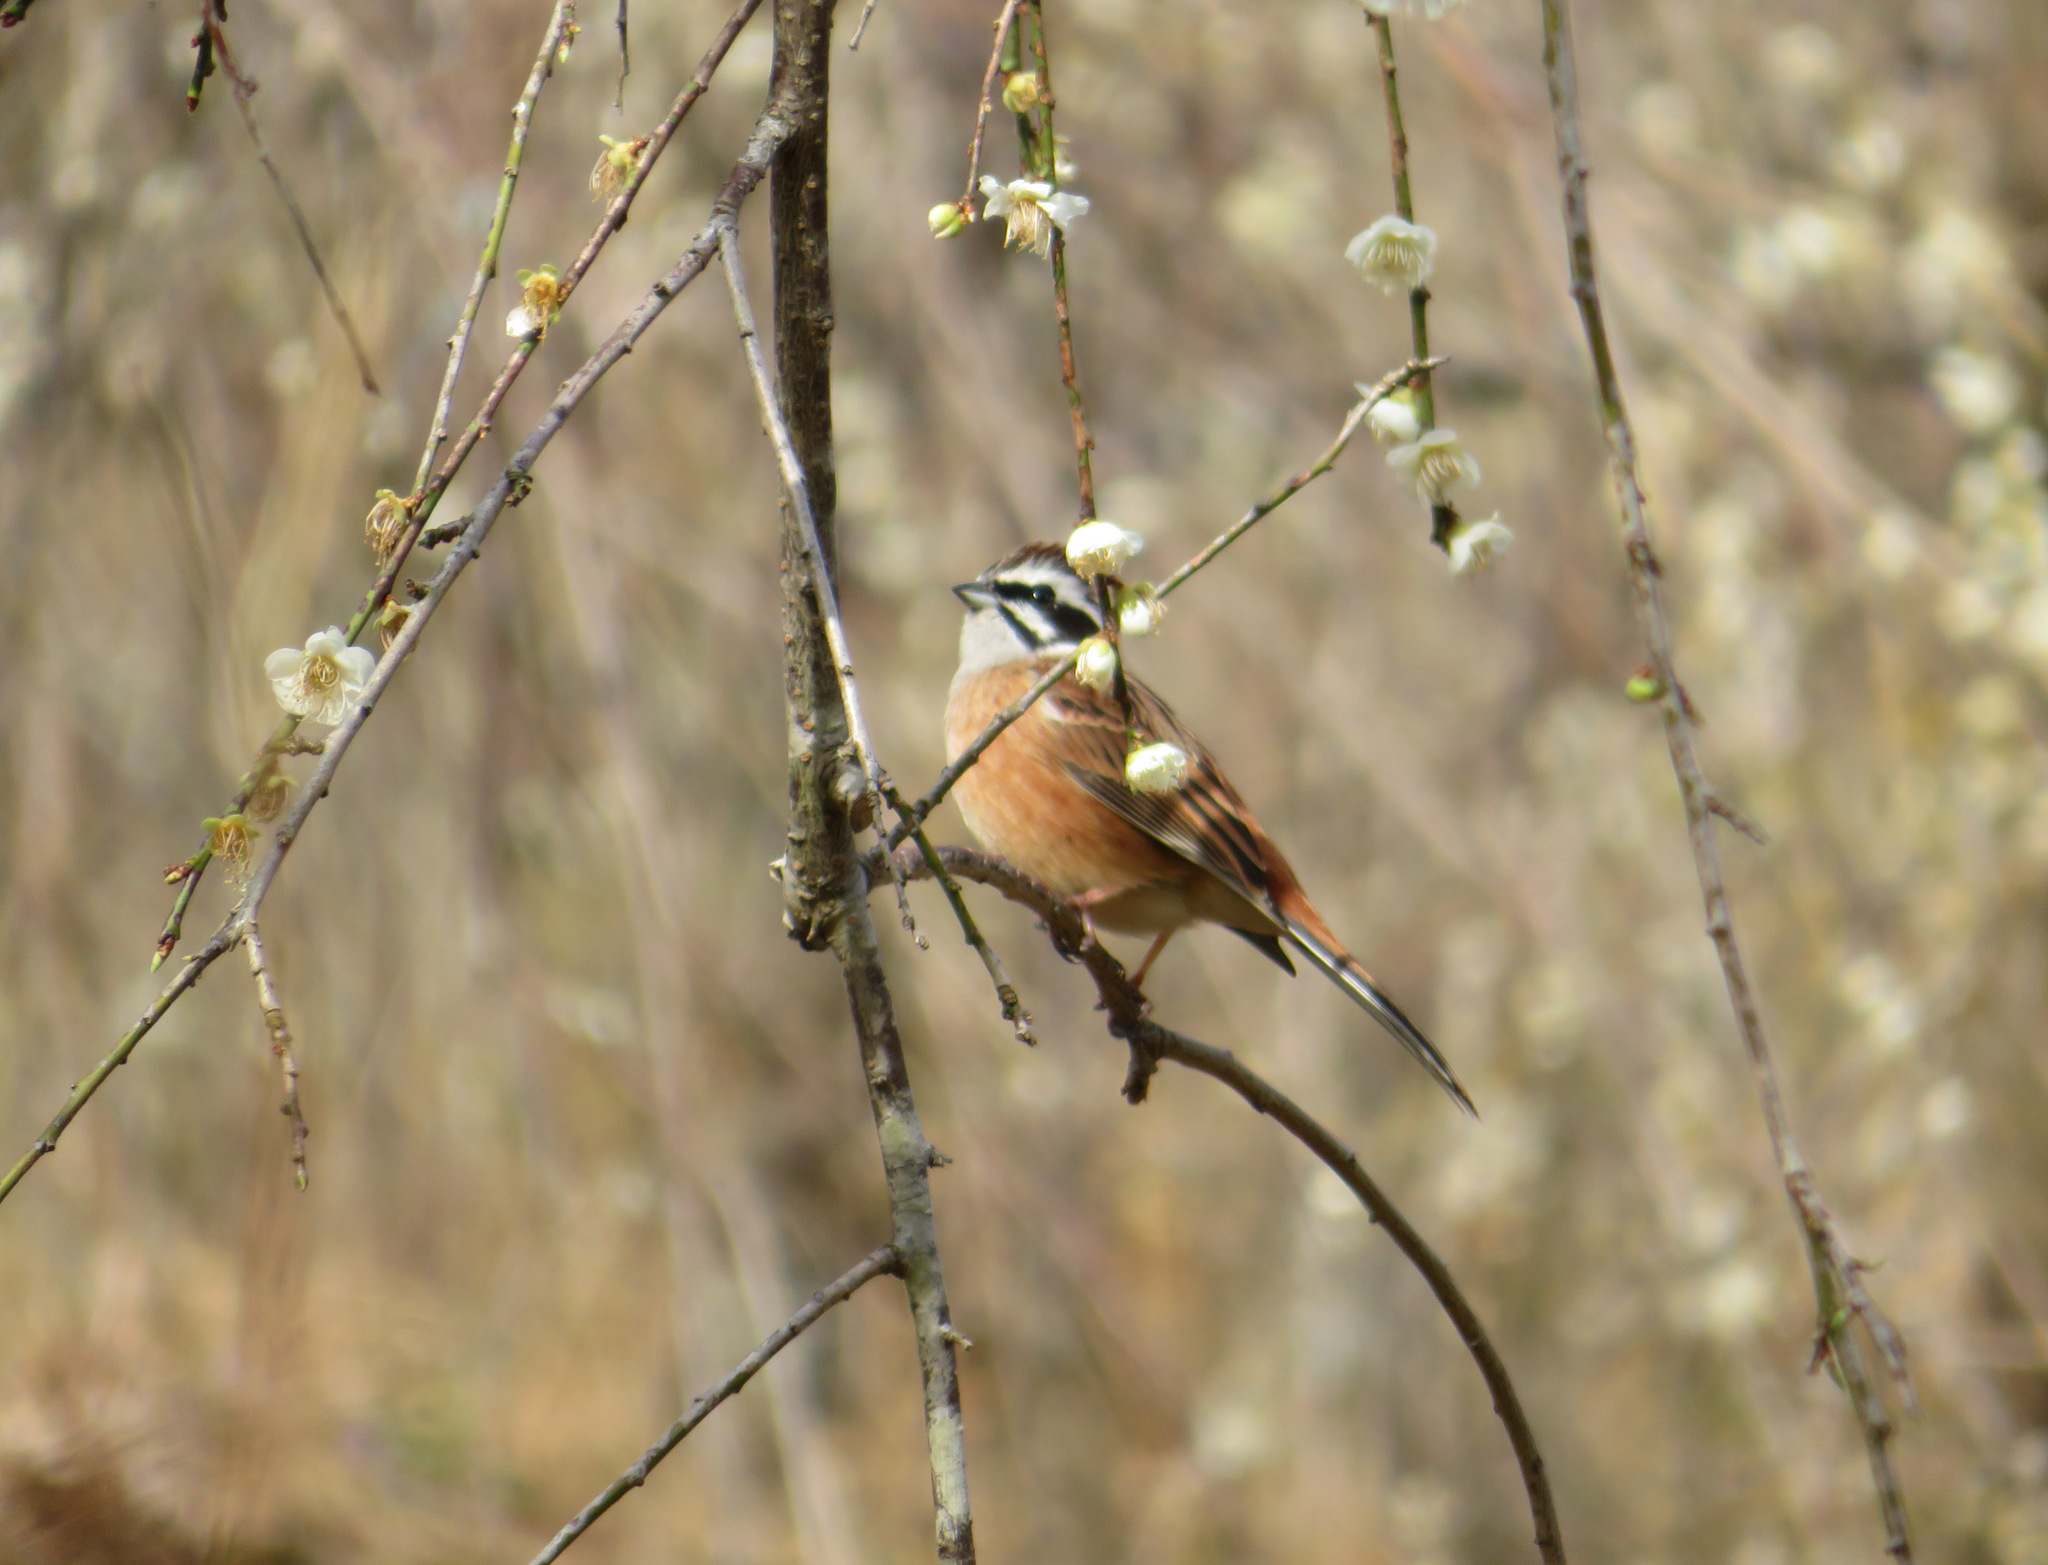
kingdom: Animalia
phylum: Chordata
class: Aves
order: Passeriformes
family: Emberizidae
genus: Emberiza
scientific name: Emberiza cioides
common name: Meadow bunting
